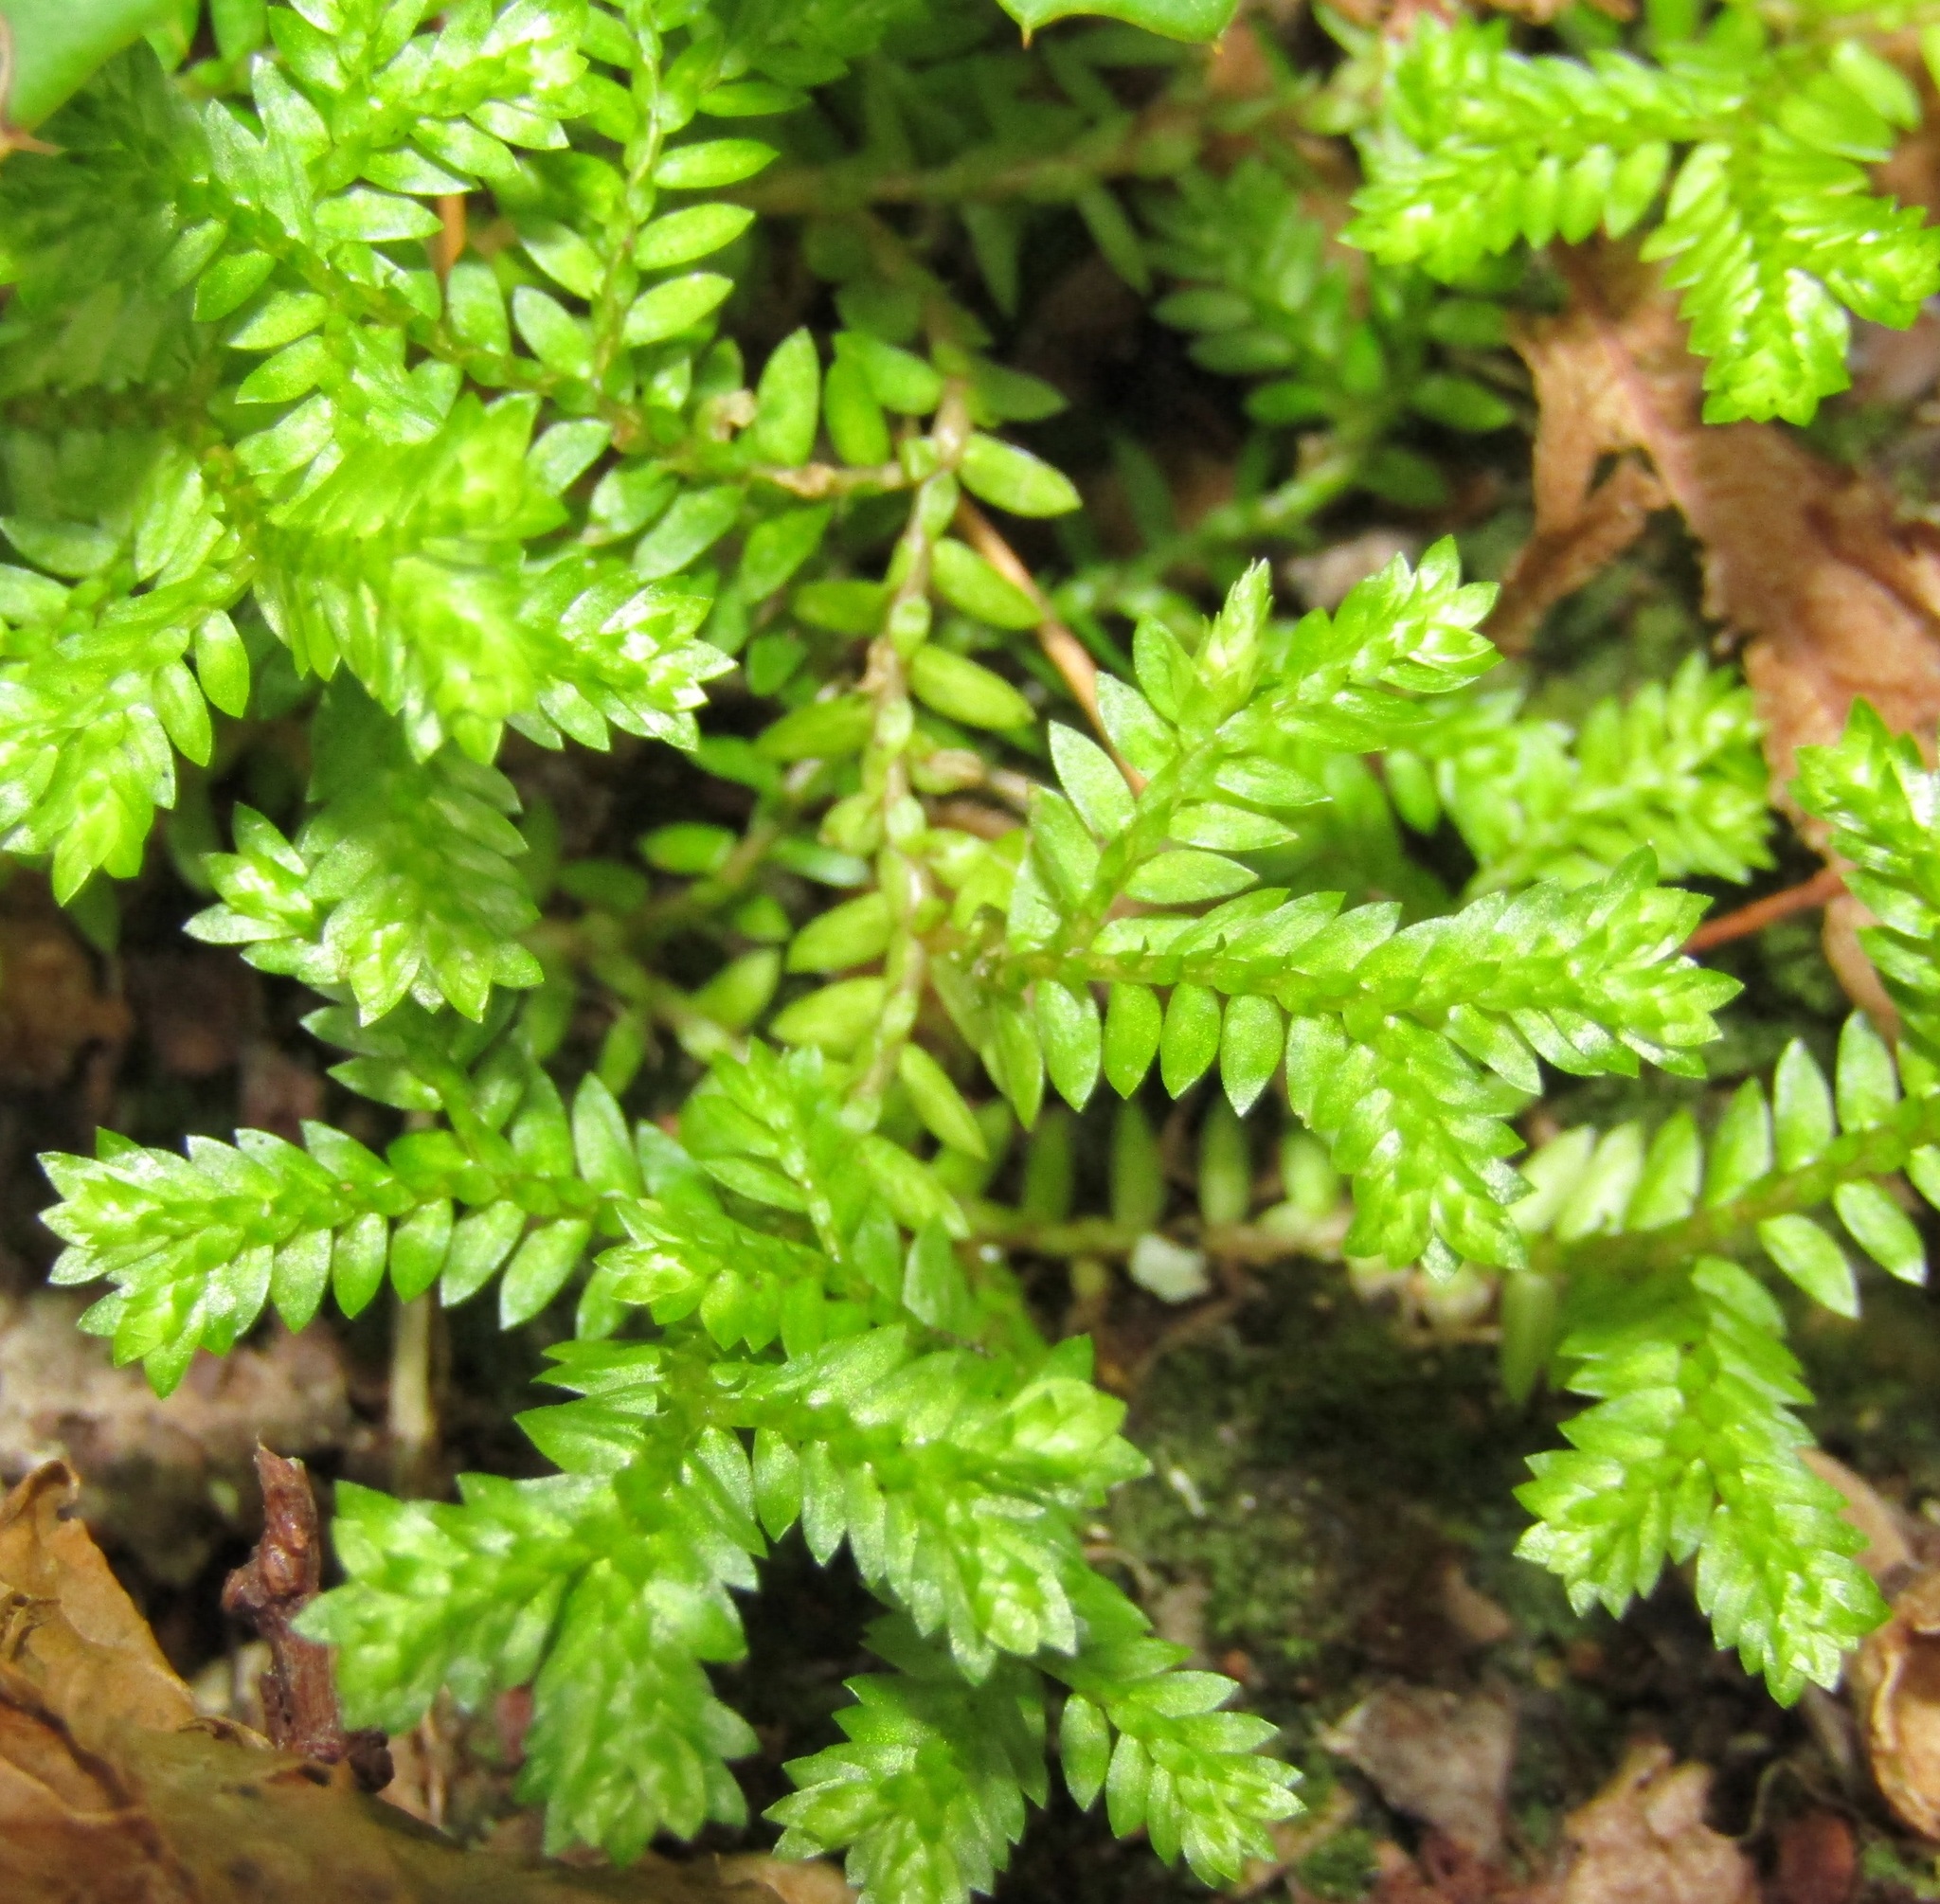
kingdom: Plantae
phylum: Tracheophyta
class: Lycopodiopsida
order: Selaginellales
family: Selaginellaceae
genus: Selaginella
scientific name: Selaginella kraussiana
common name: Krauss' spikemoss
